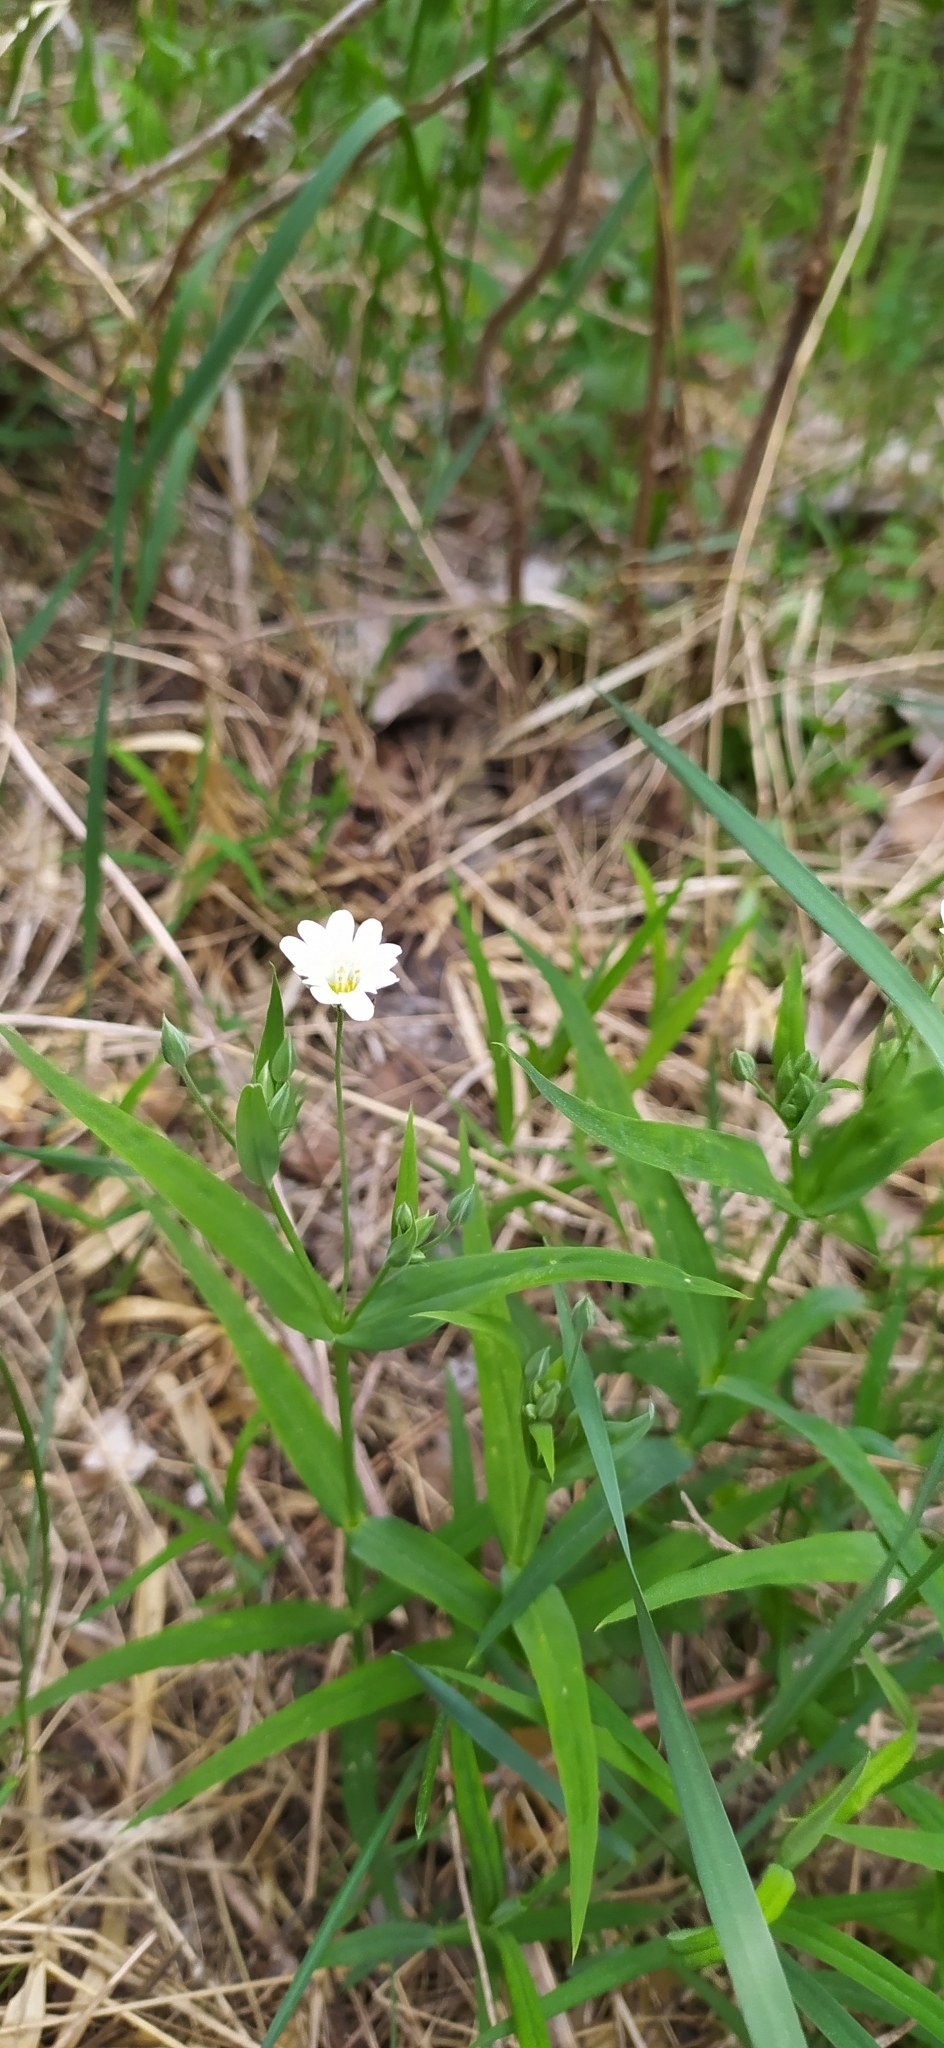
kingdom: Plantae
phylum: Tracheophyta
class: Magnoliopsida
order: Caryophyllales
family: Caryophyllaceae
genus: Rabelera
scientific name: Rabelera holostea
